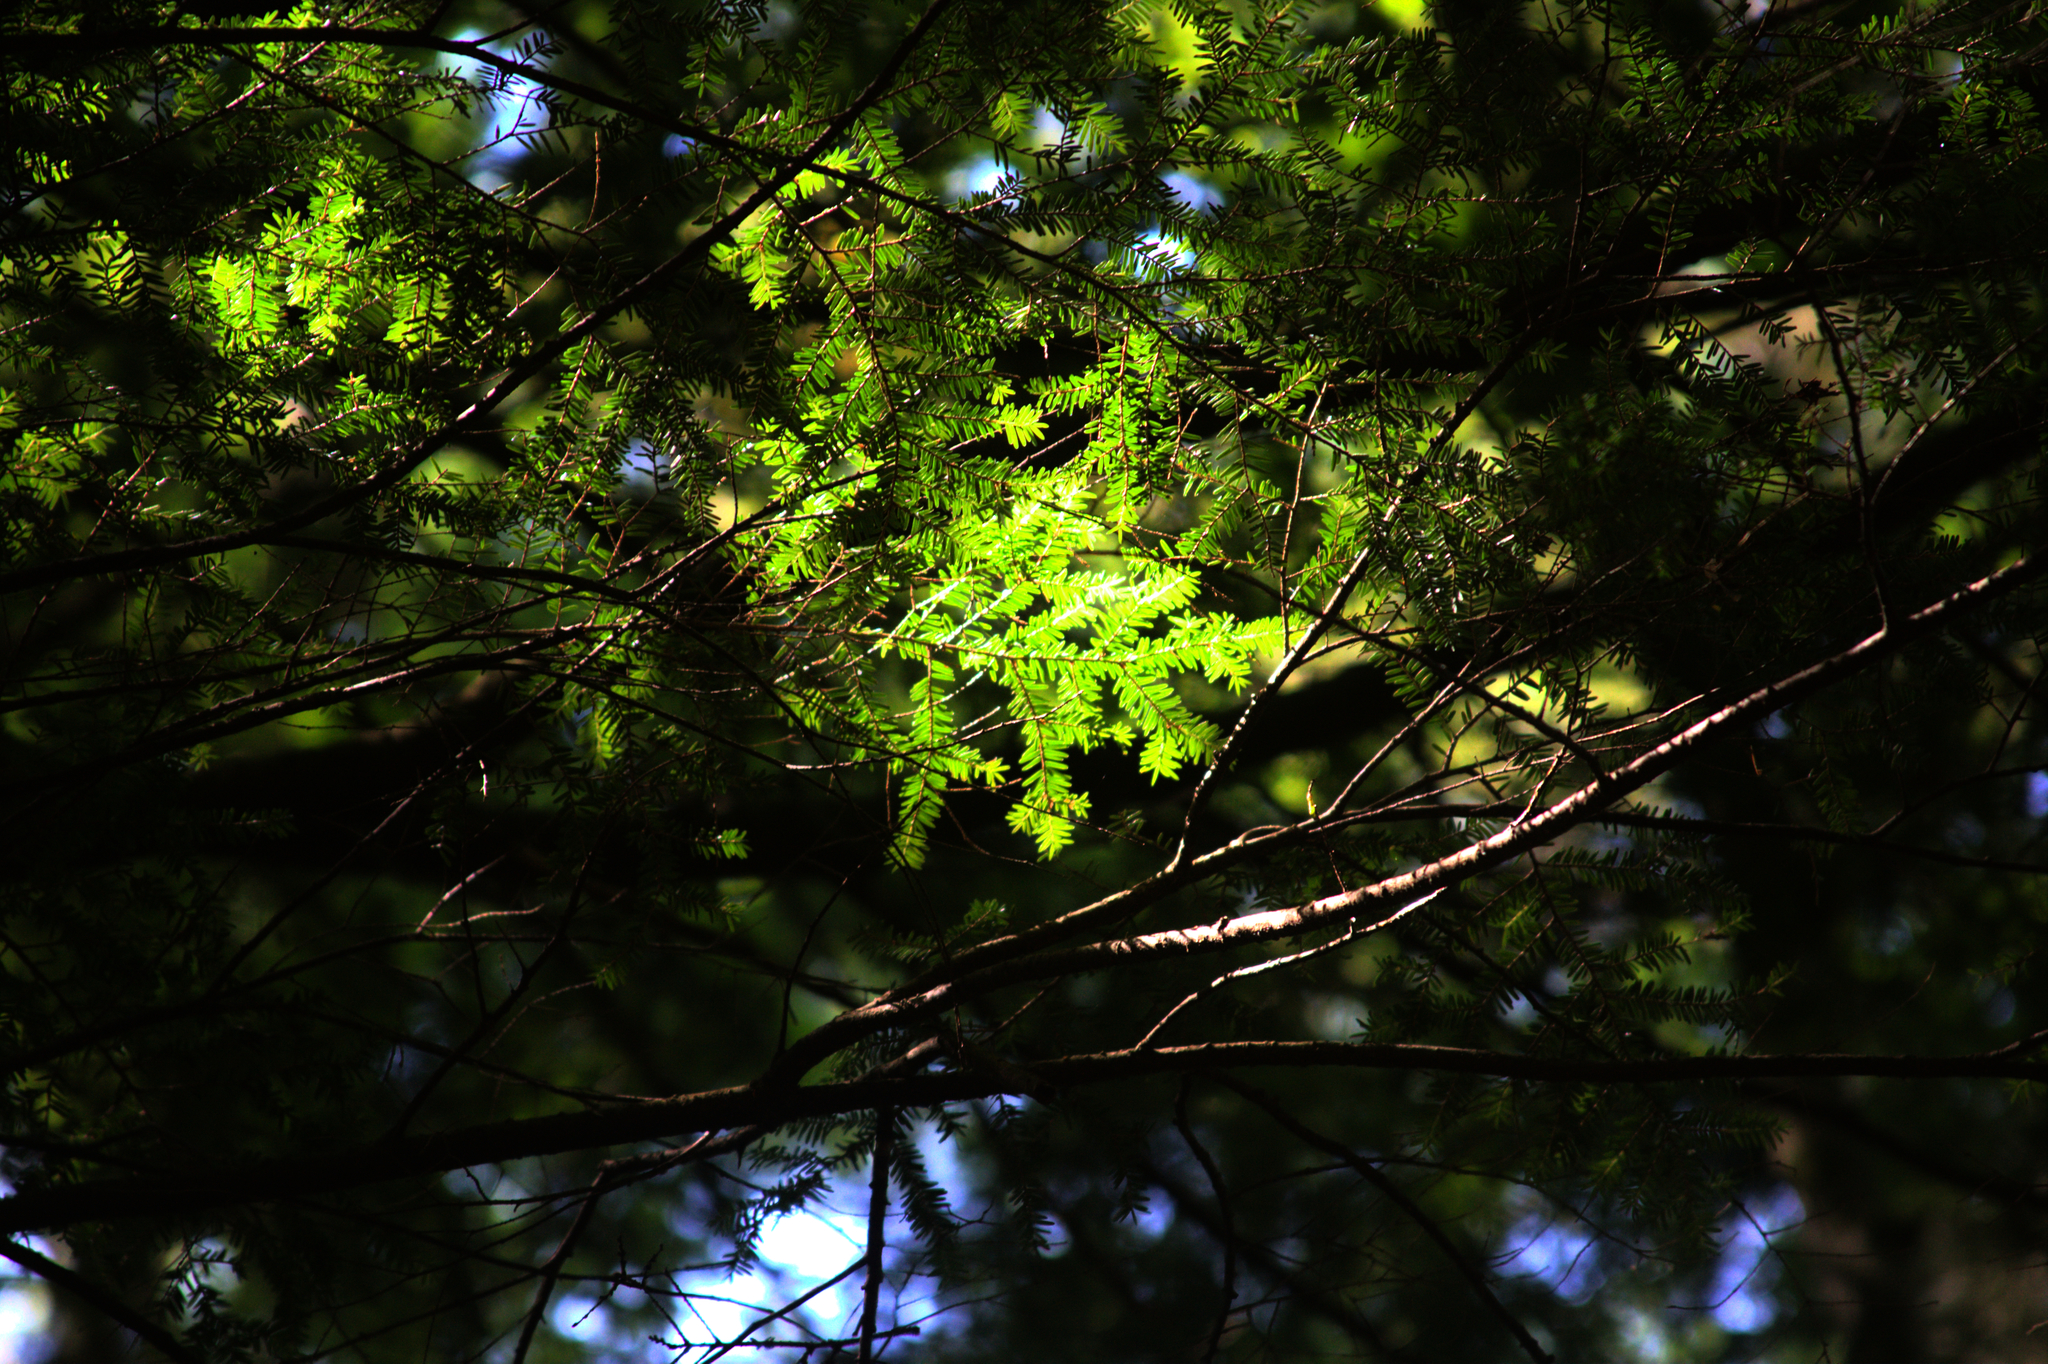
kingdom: Plantae
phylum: Tracheophyta
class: Pinopsida
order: Pinales
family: Pinaceae
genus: Tsuga
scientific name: Tsuga canadensis
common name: Eastern hemlock
